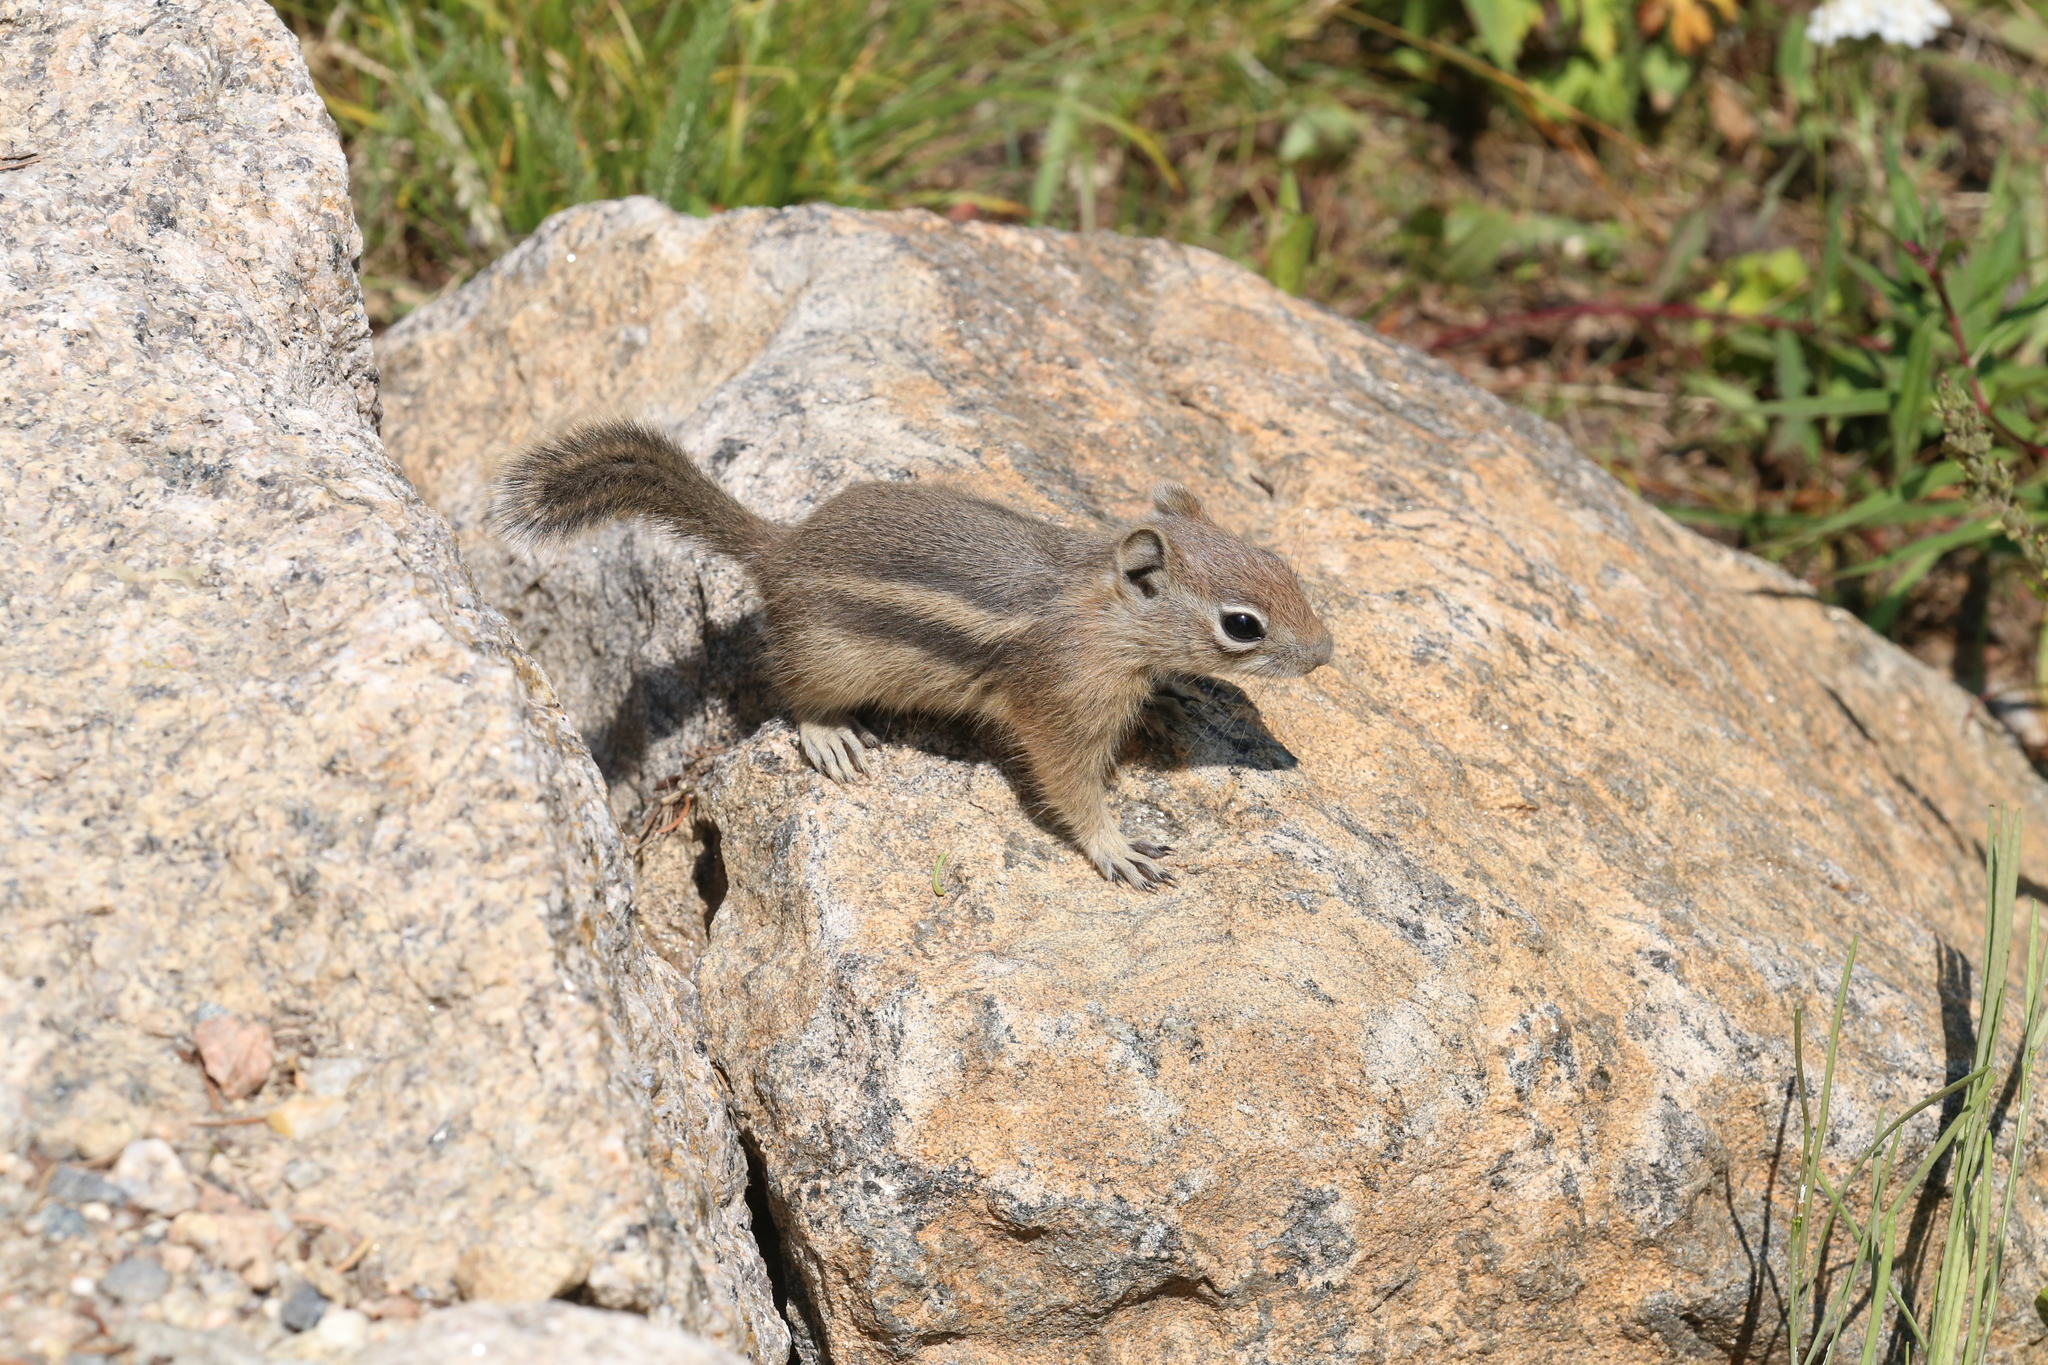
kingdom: Animalia
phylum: Chordata
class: Mammalia
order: Rodentia
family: Sciuridae
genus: Callospermophilus
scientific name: Callospermophilus lateralis
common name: Golden-mantled ground squirrel
